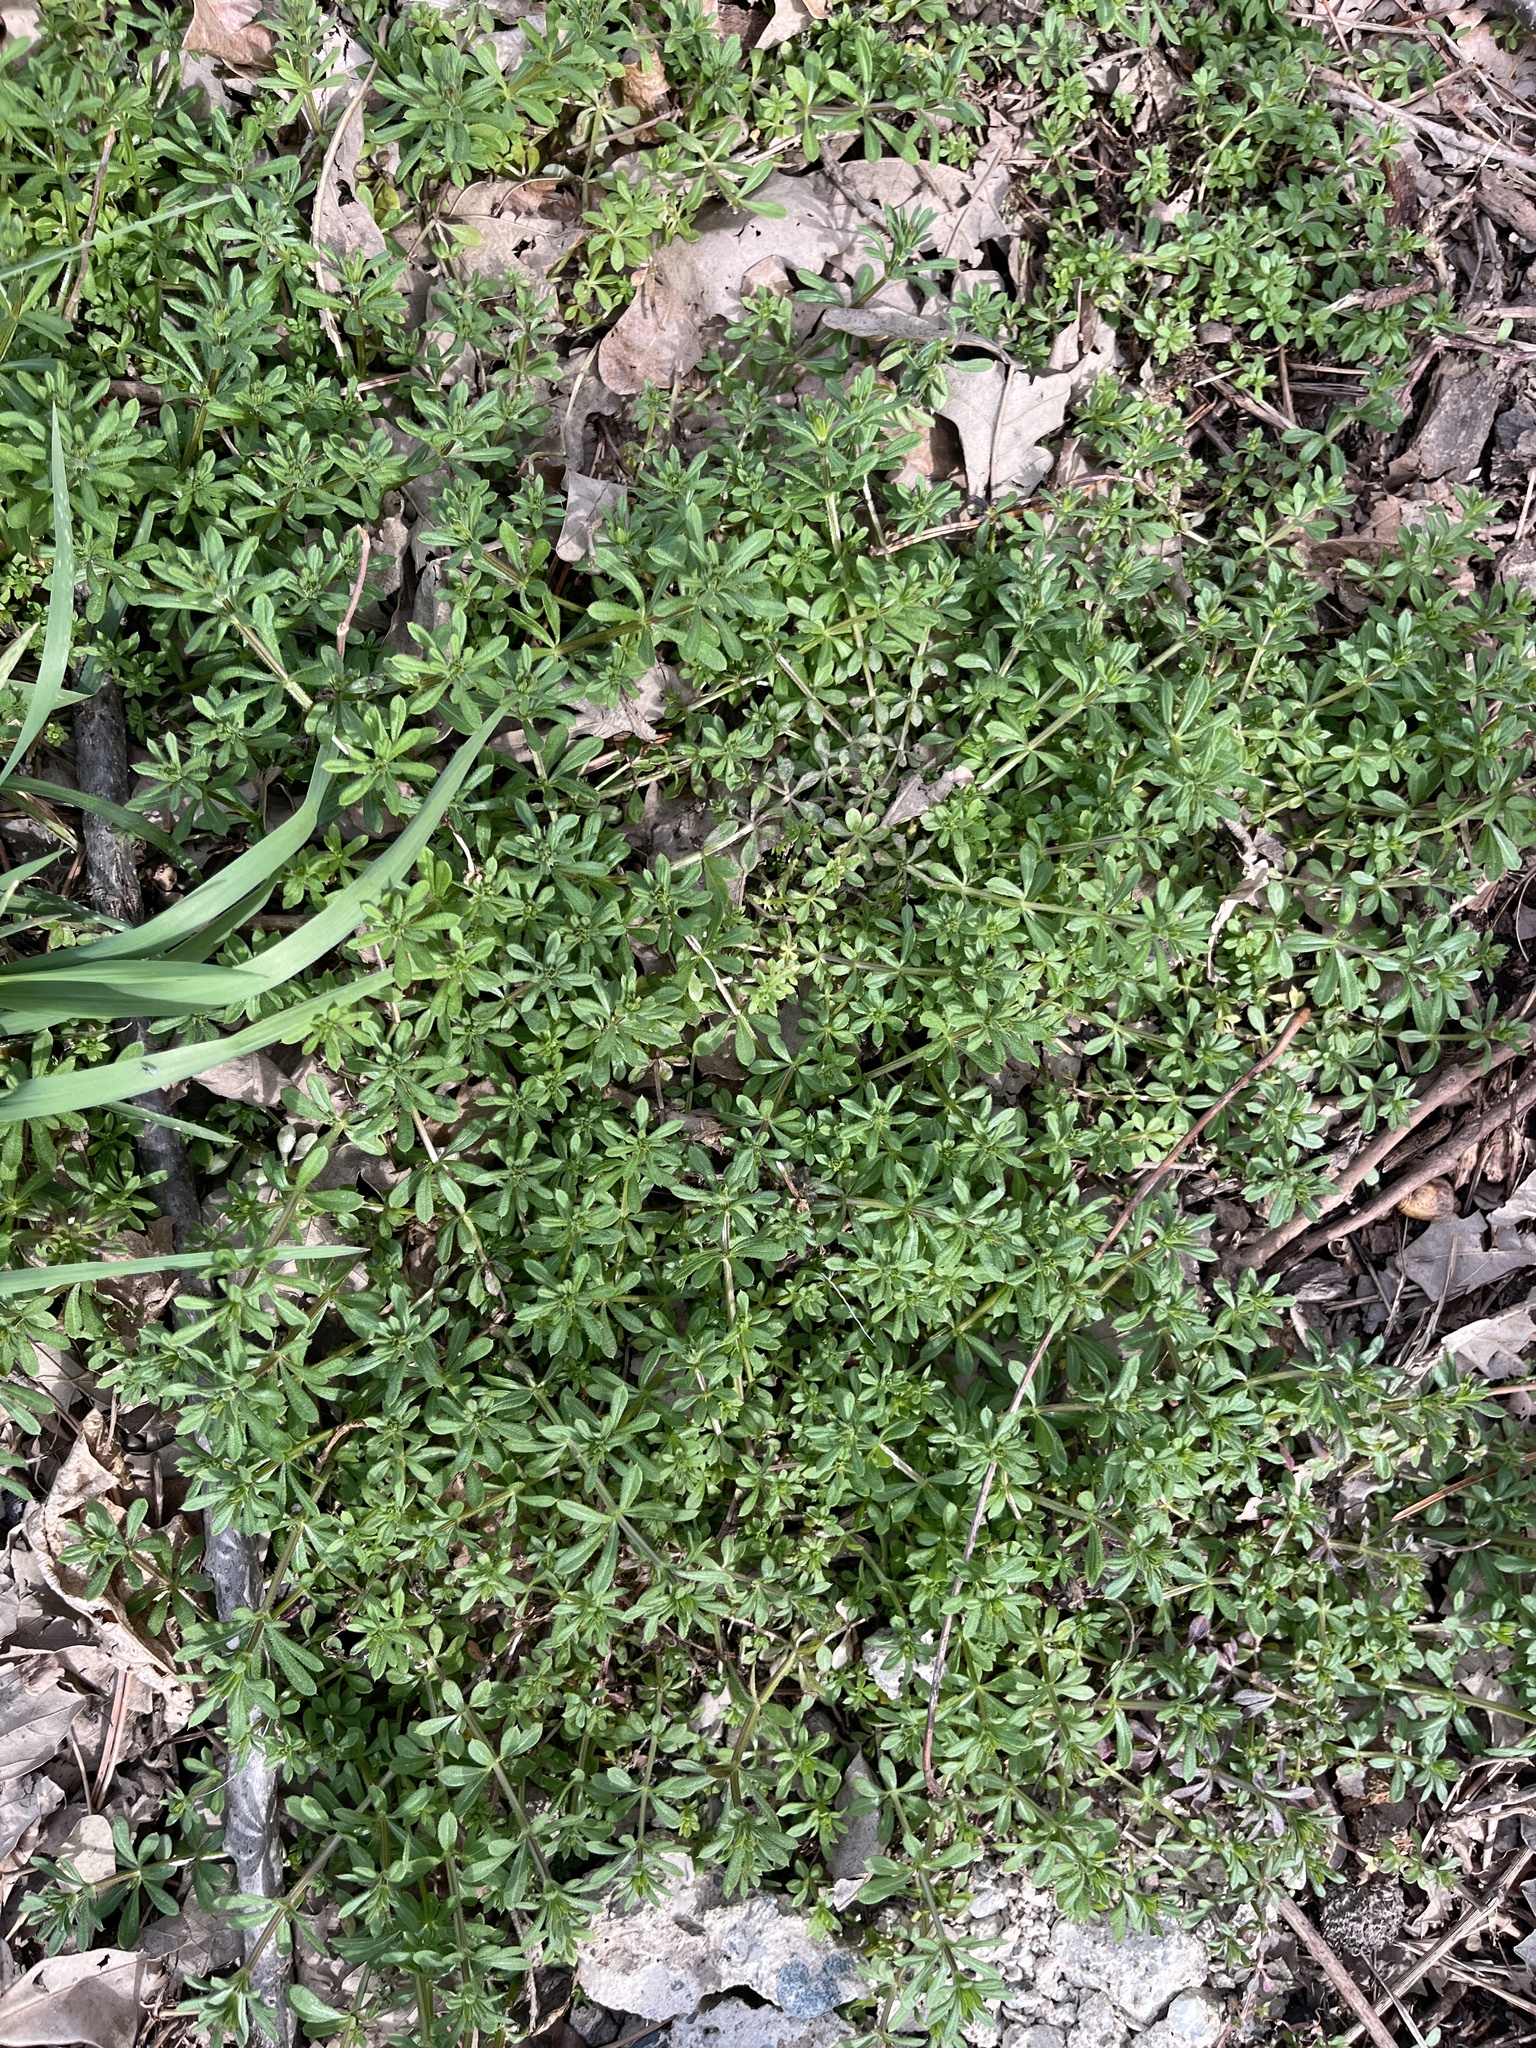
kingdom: Plantae
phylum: Tracheophyta
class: Magnoliopsida
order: Gentianales
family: Rubiaceae
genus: Galium
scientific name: Galium aparine
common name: Cleavers
